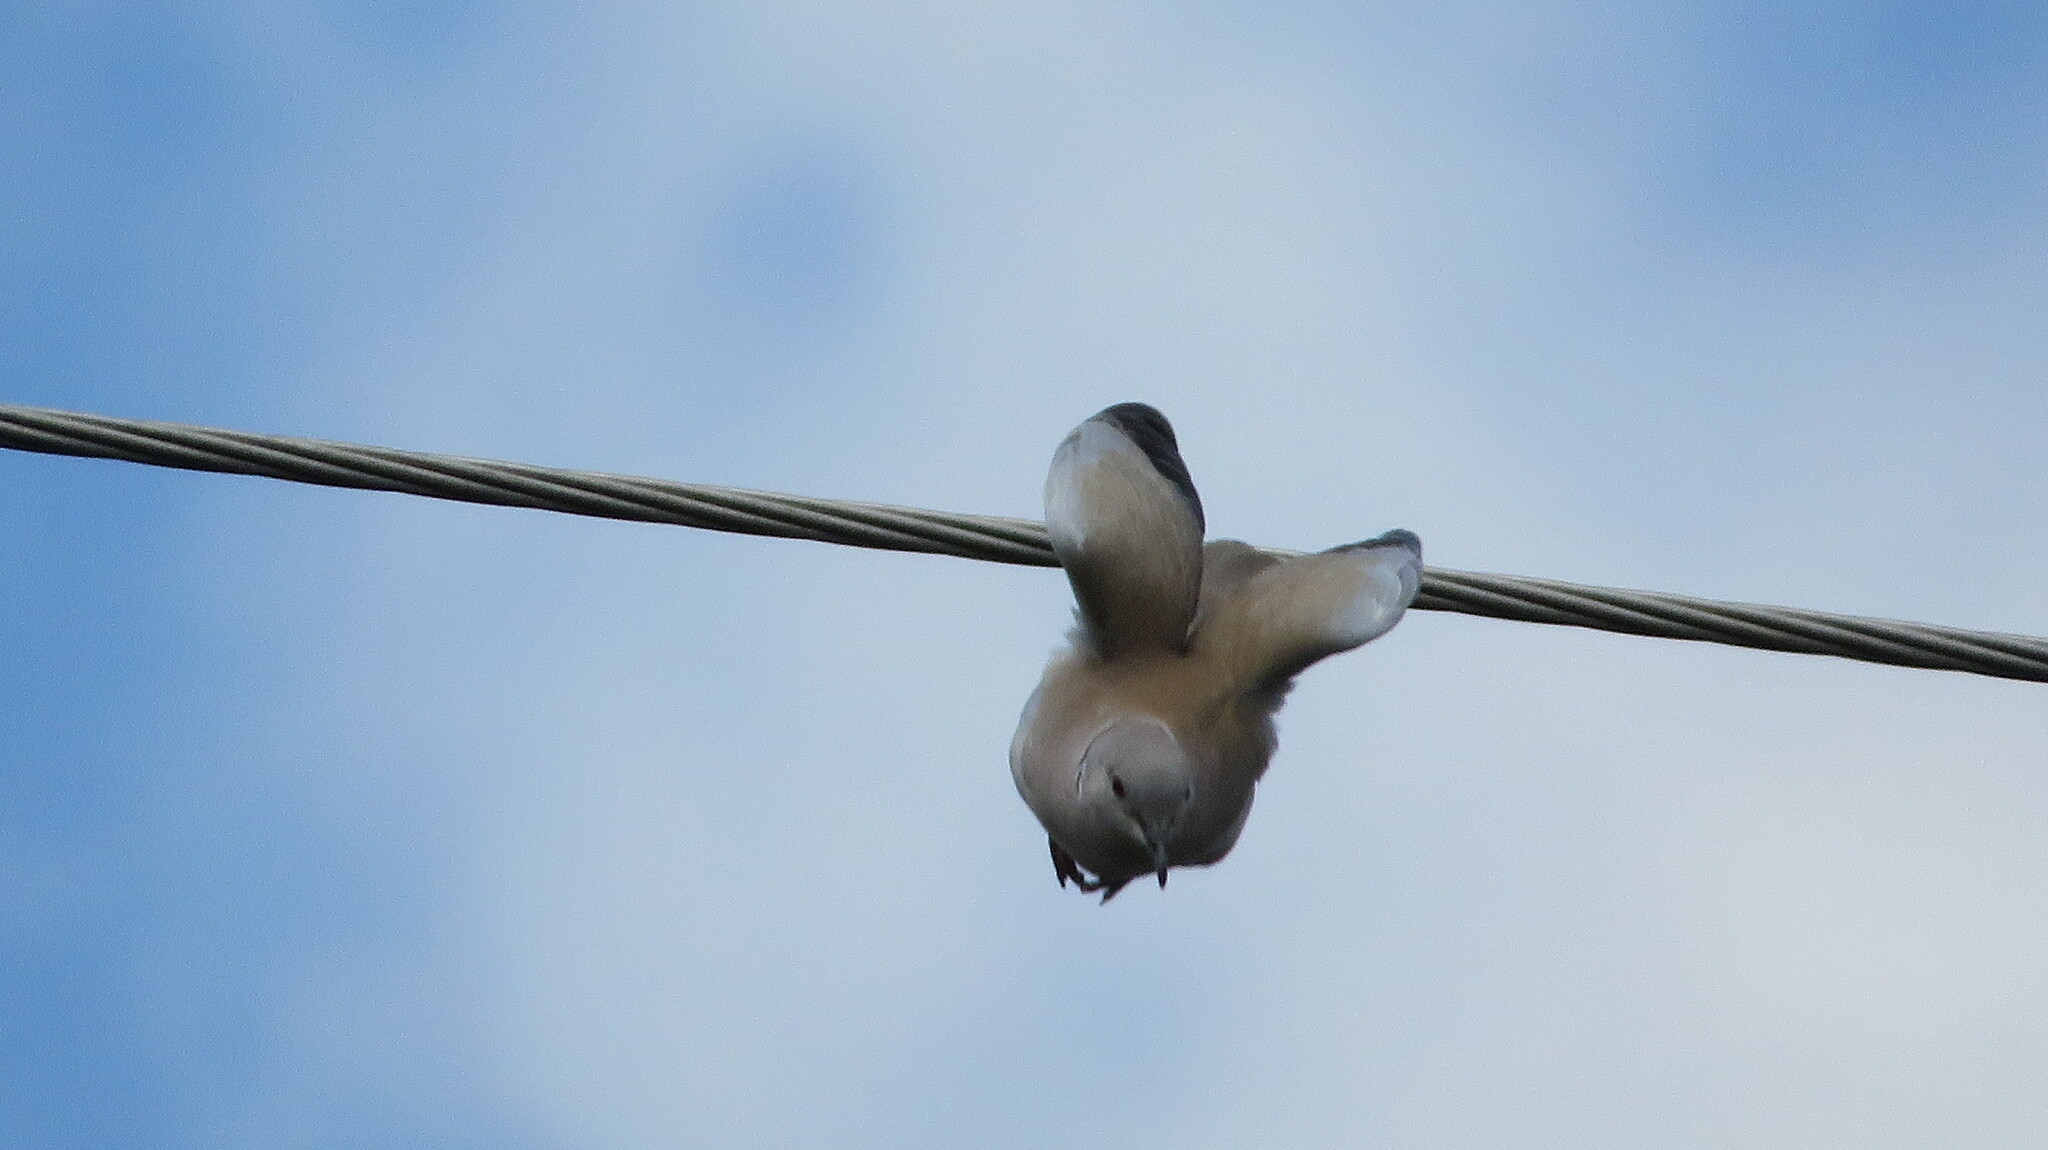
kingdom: Animalia
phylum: Chordata
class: Aves
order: Columbiformes
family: Columbidae
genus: Streptopelia
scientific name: Streptopelia decaocto
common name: Eurasian collared dove
